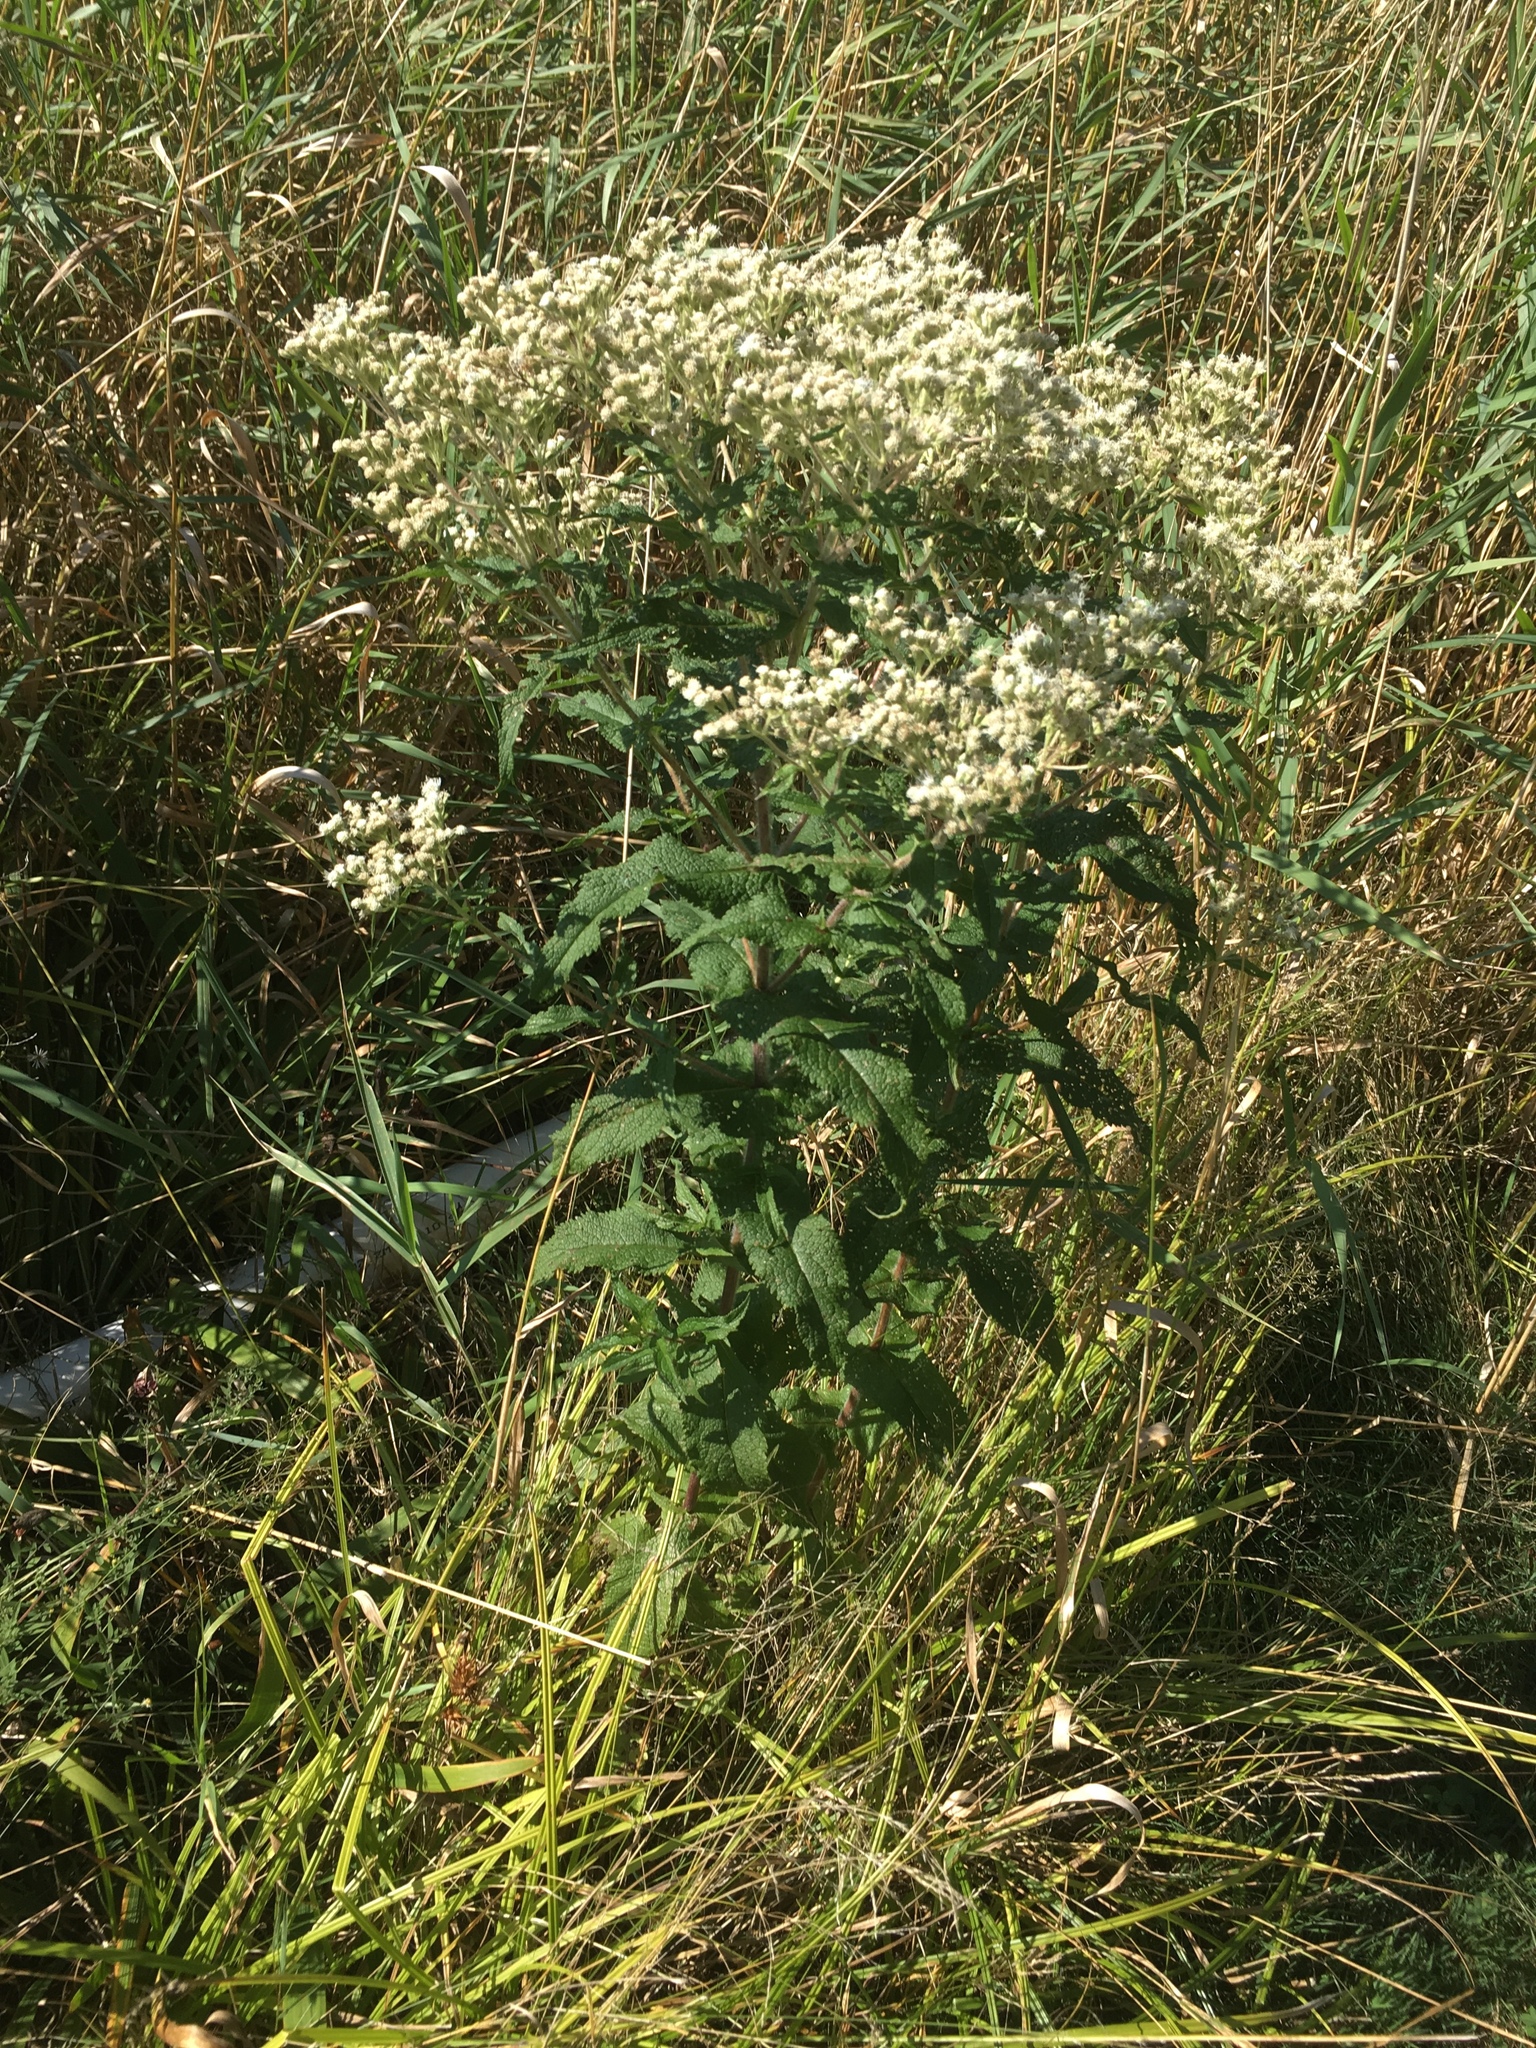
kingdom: Plantae
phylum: Tracheophyta
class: Magnoliopsida
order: Asterales
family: Asteraceae
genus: Eupatorium
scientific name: Eupatorium perfoliatum
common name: Boneset
